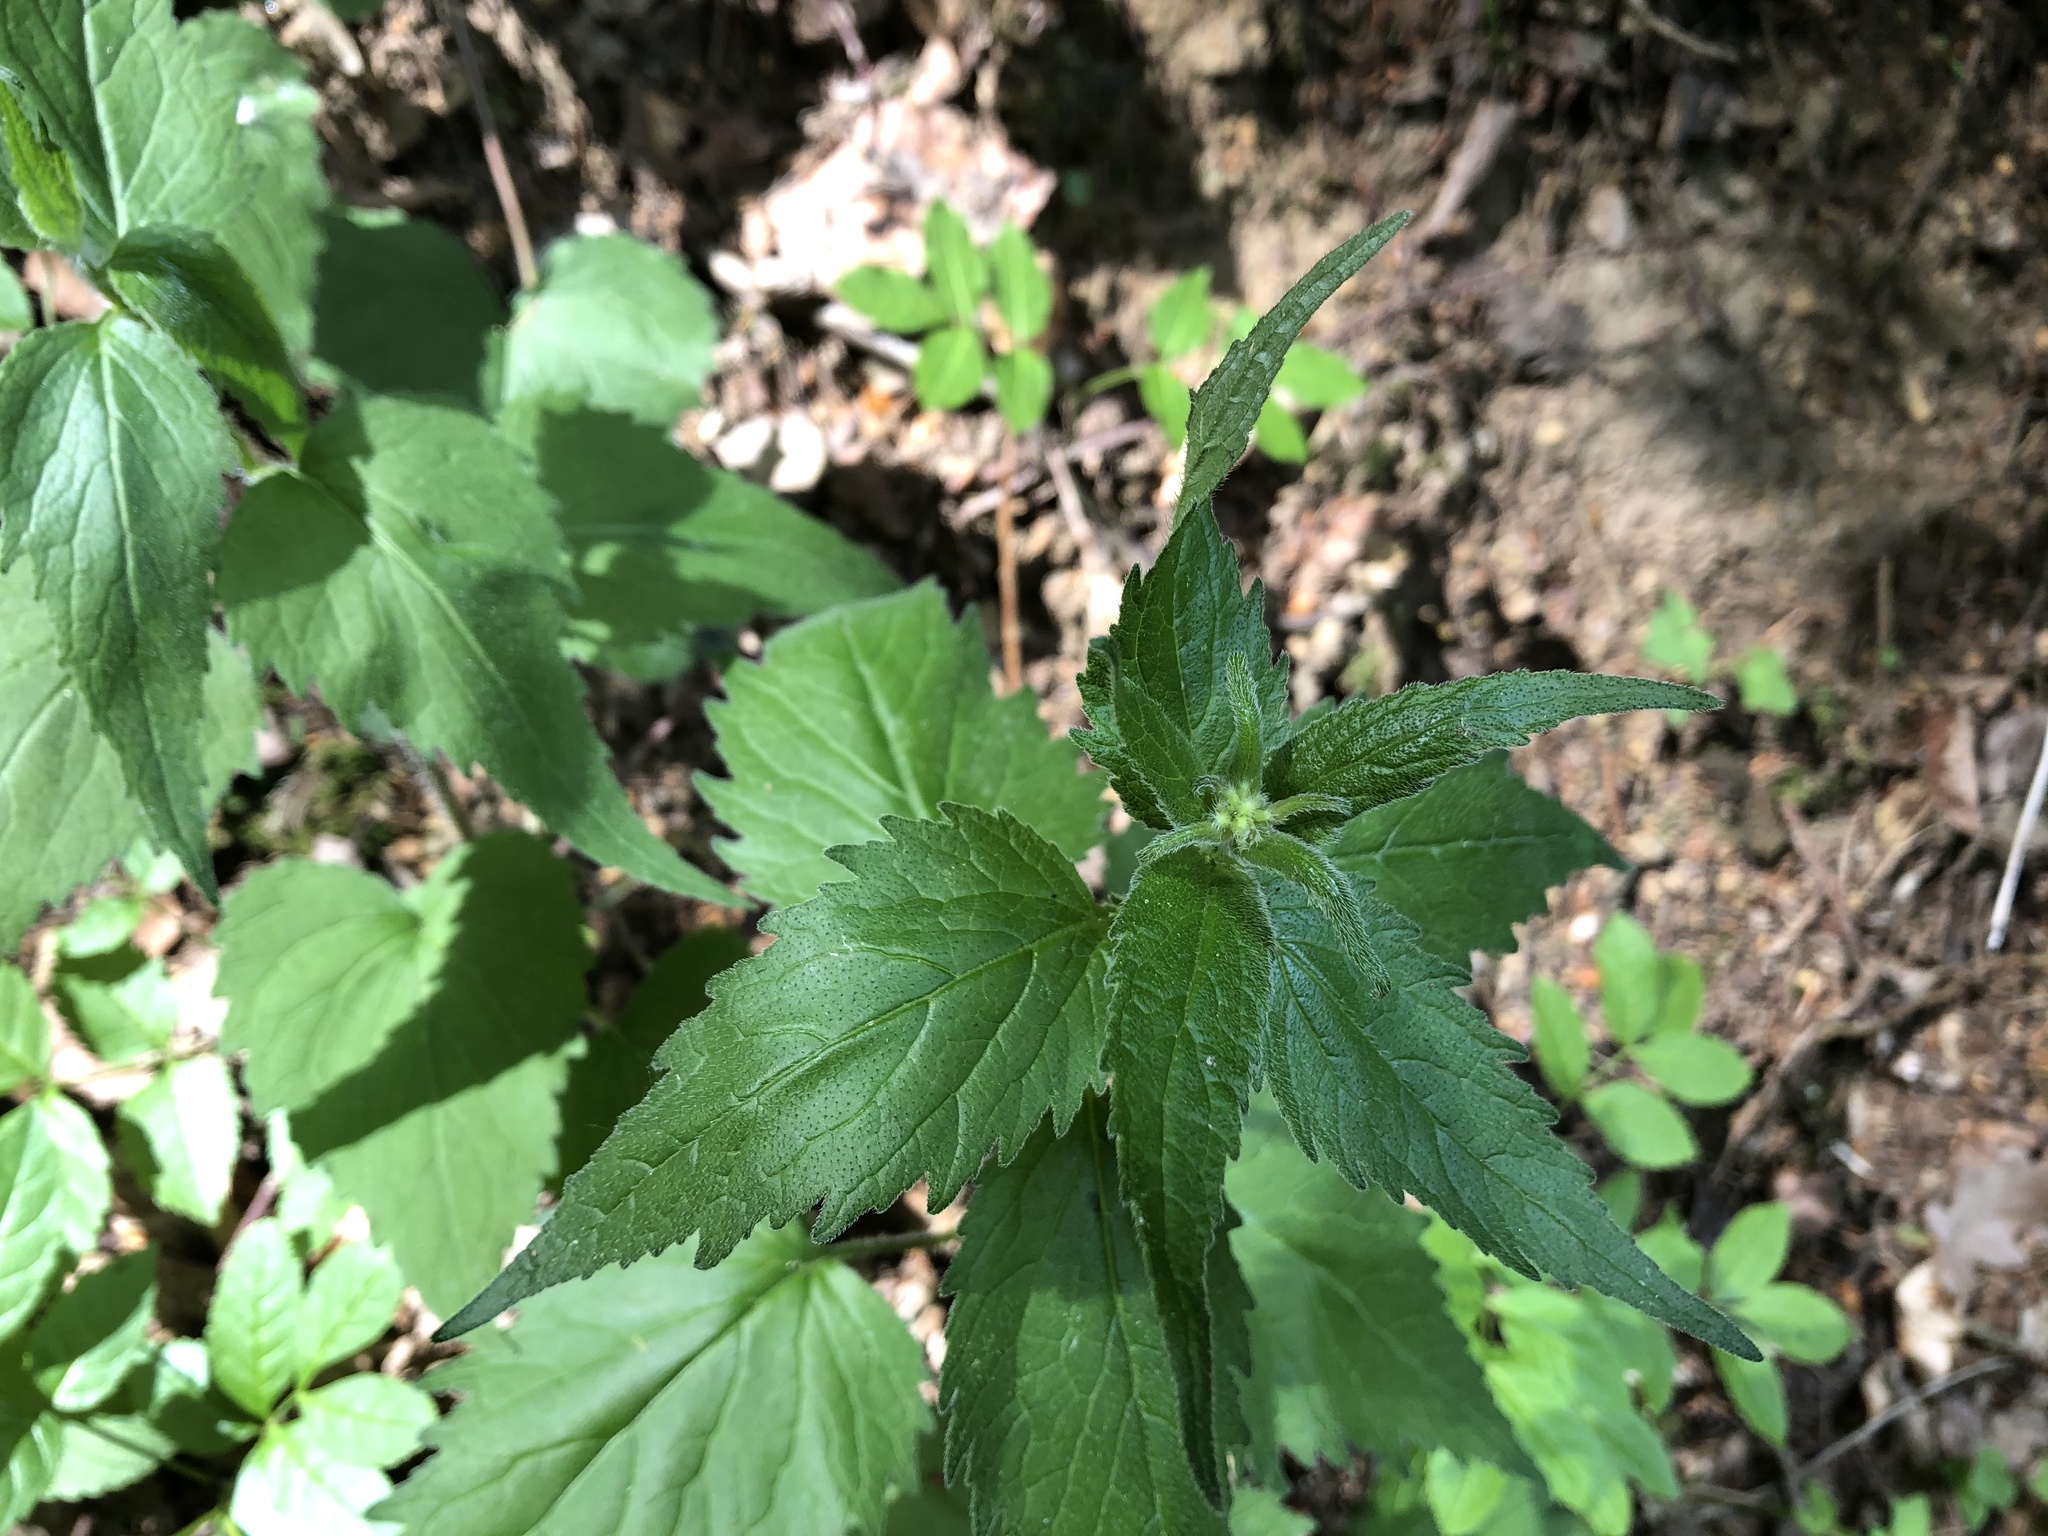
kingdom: Plantae
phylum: Tracheophyta
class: Magnoliopsida
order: Asterales
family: Campanulaceae
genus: Campanula
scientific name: Campanula trachelium
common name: Nettle-leaved bellflower
